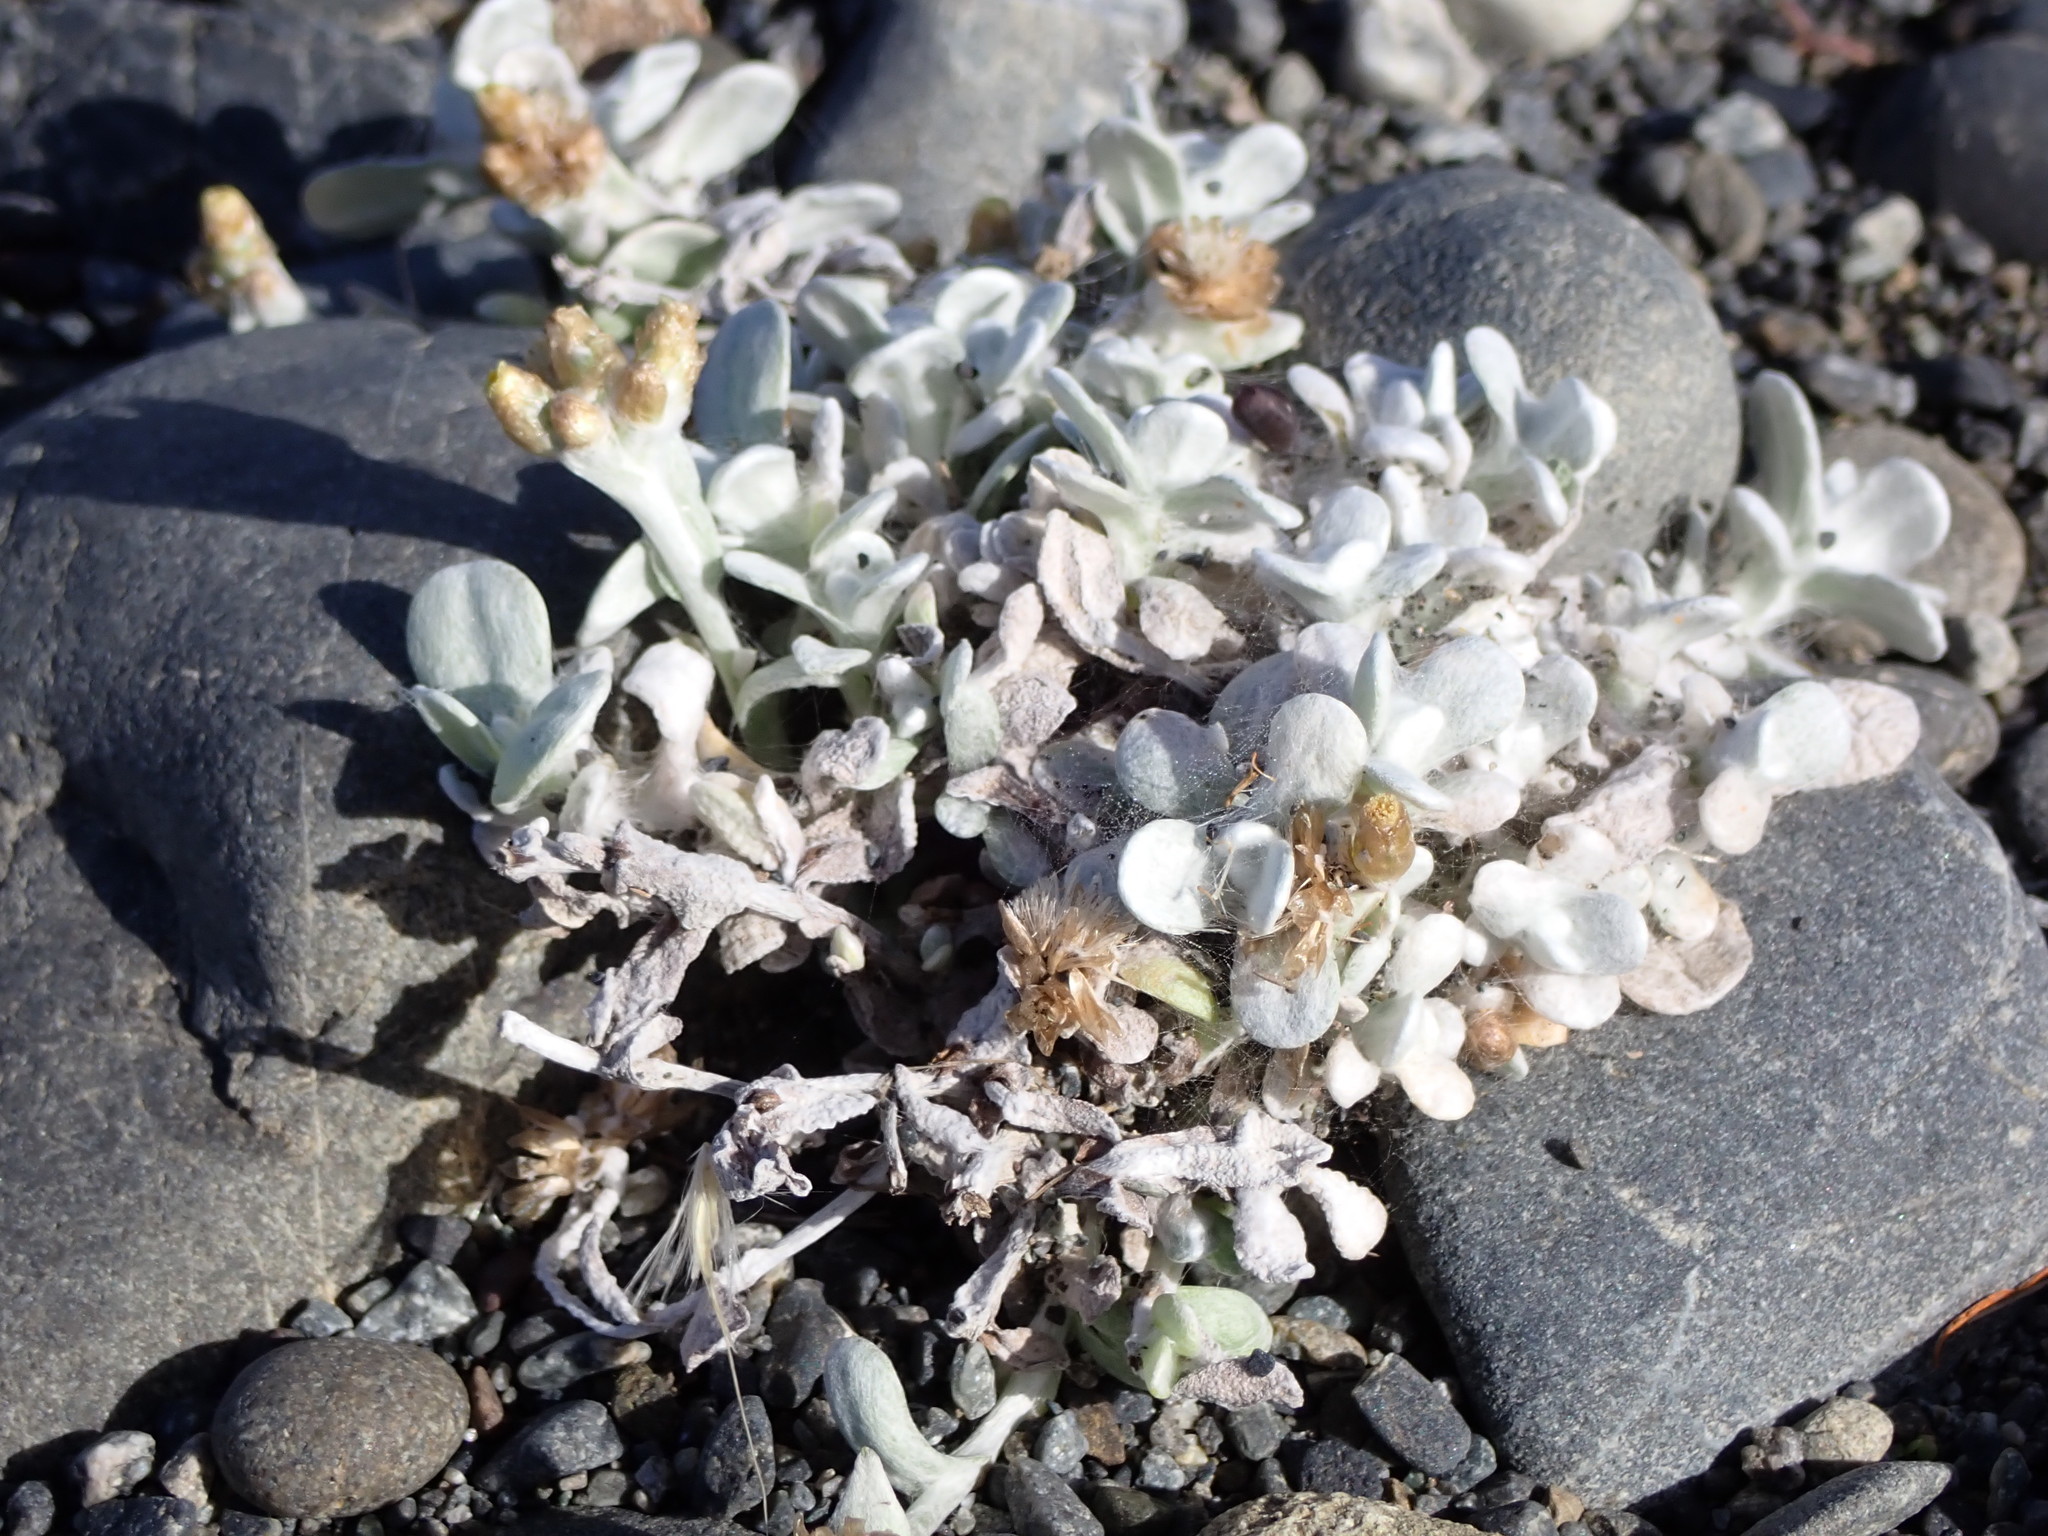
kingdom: Plantae
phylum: Tracheophyta
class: Magnoliopsida
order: Asterales
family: Asteraceae
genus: Pseudognaphalium
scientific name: Pseudognaphalium
